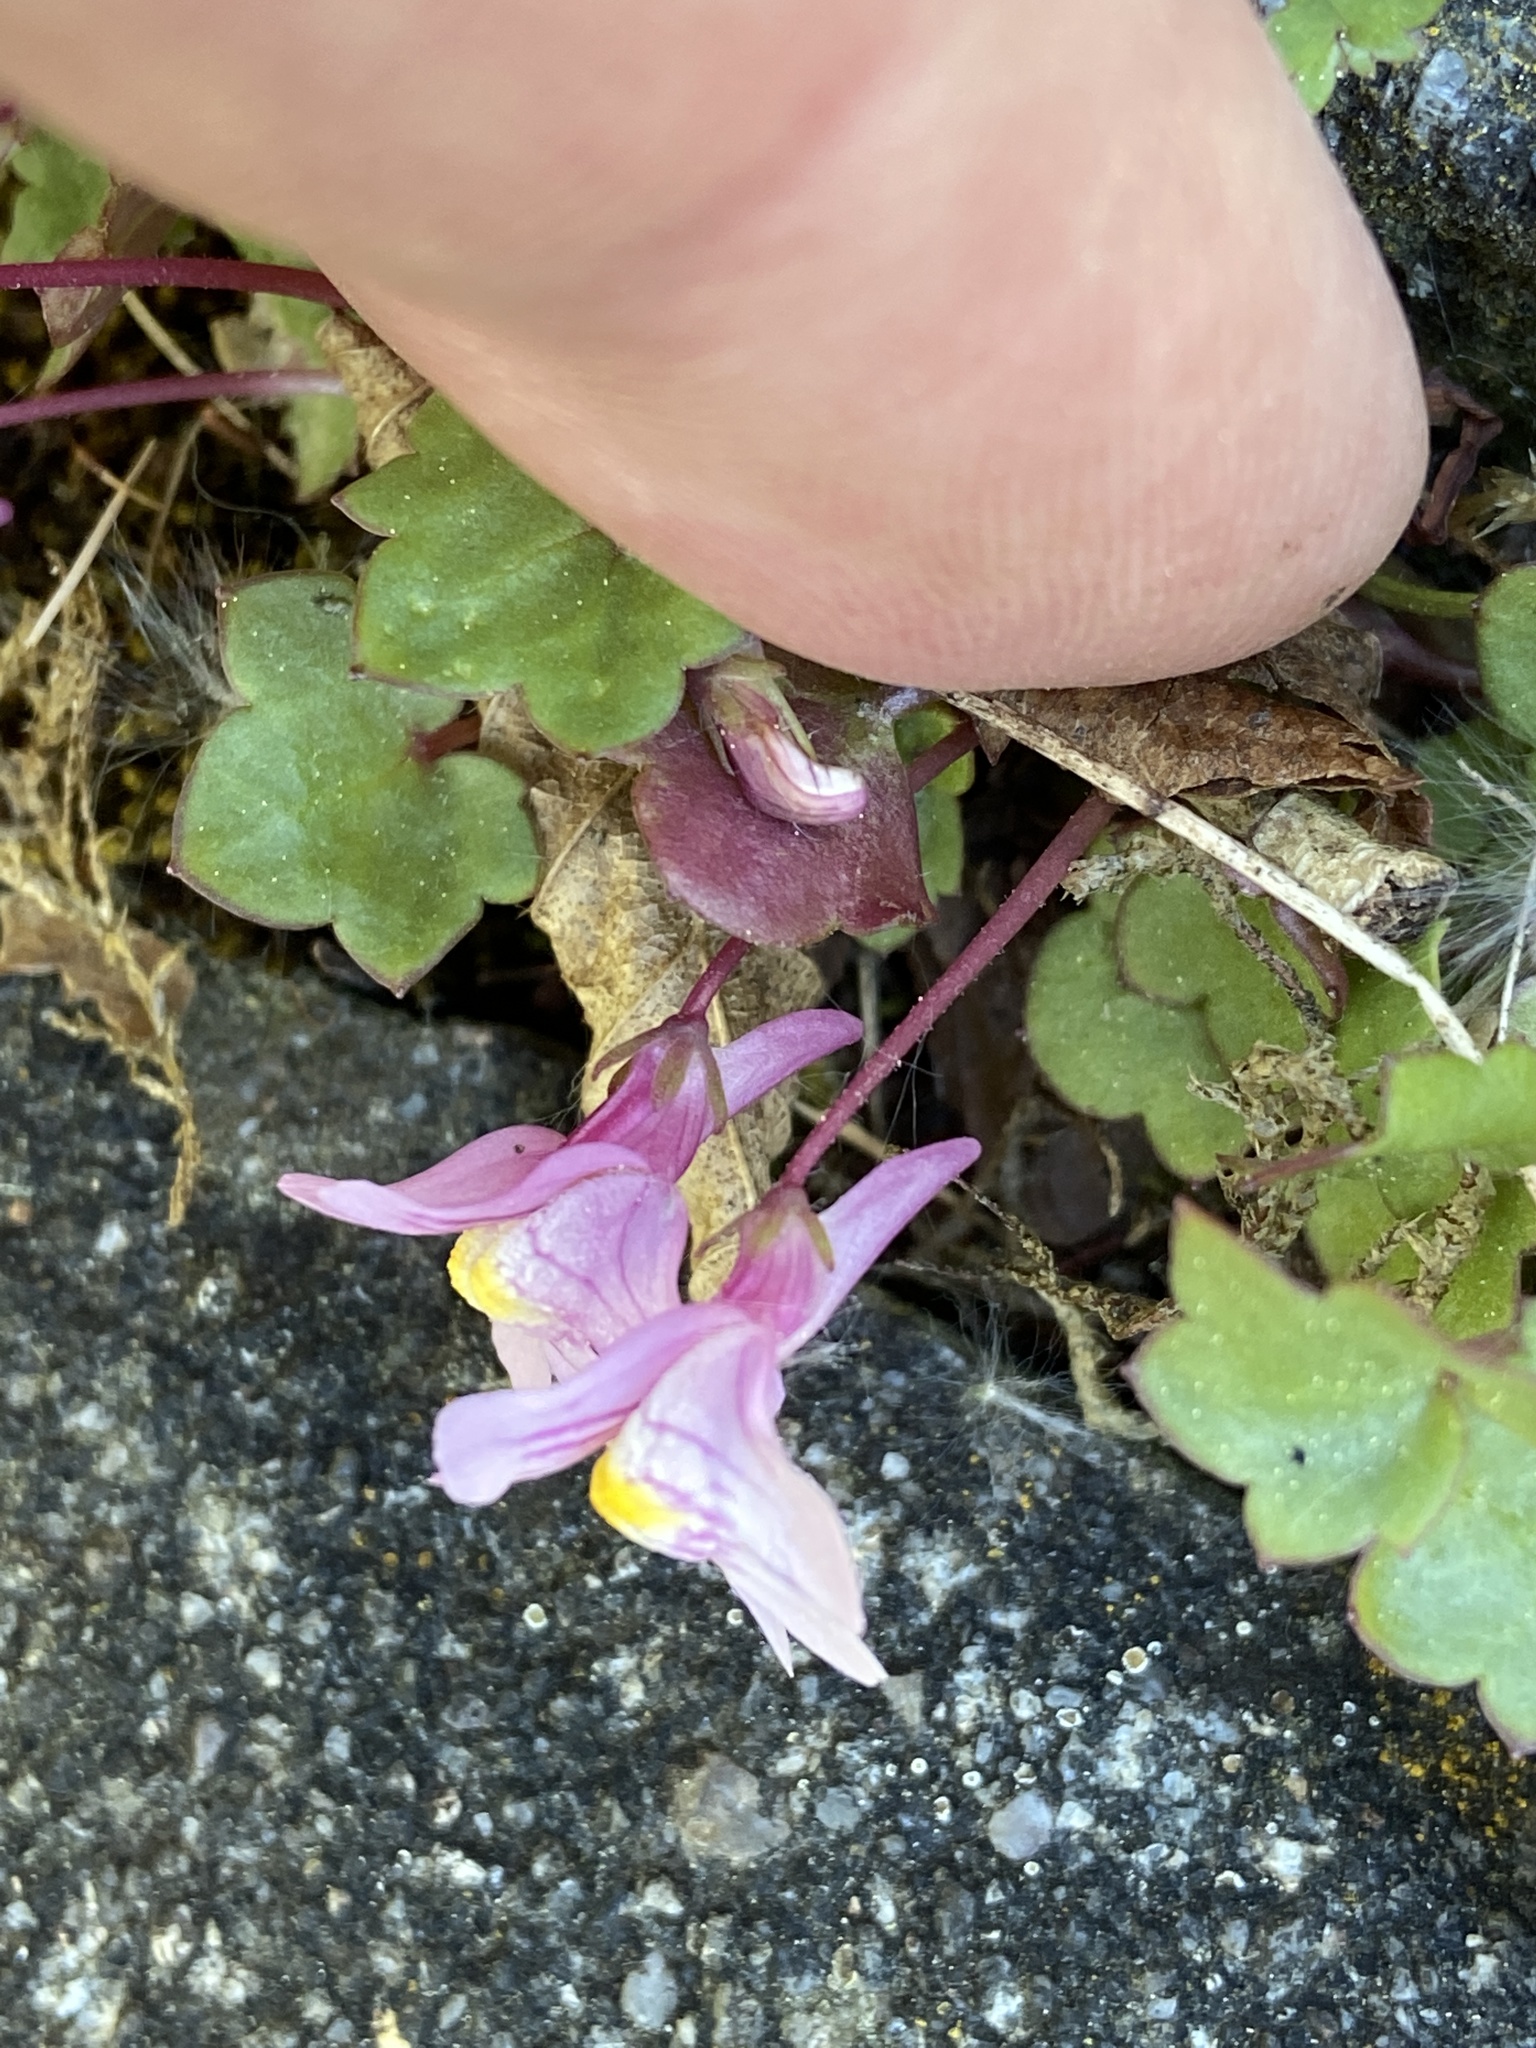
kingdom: Plantae
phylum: Tracheophyta
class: Magnoliopsida
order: Lamiales
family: Plantaginaceae
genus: Cymbalaria
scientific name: Cymbalaria muralis
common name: Ivy-leaved toadflax
